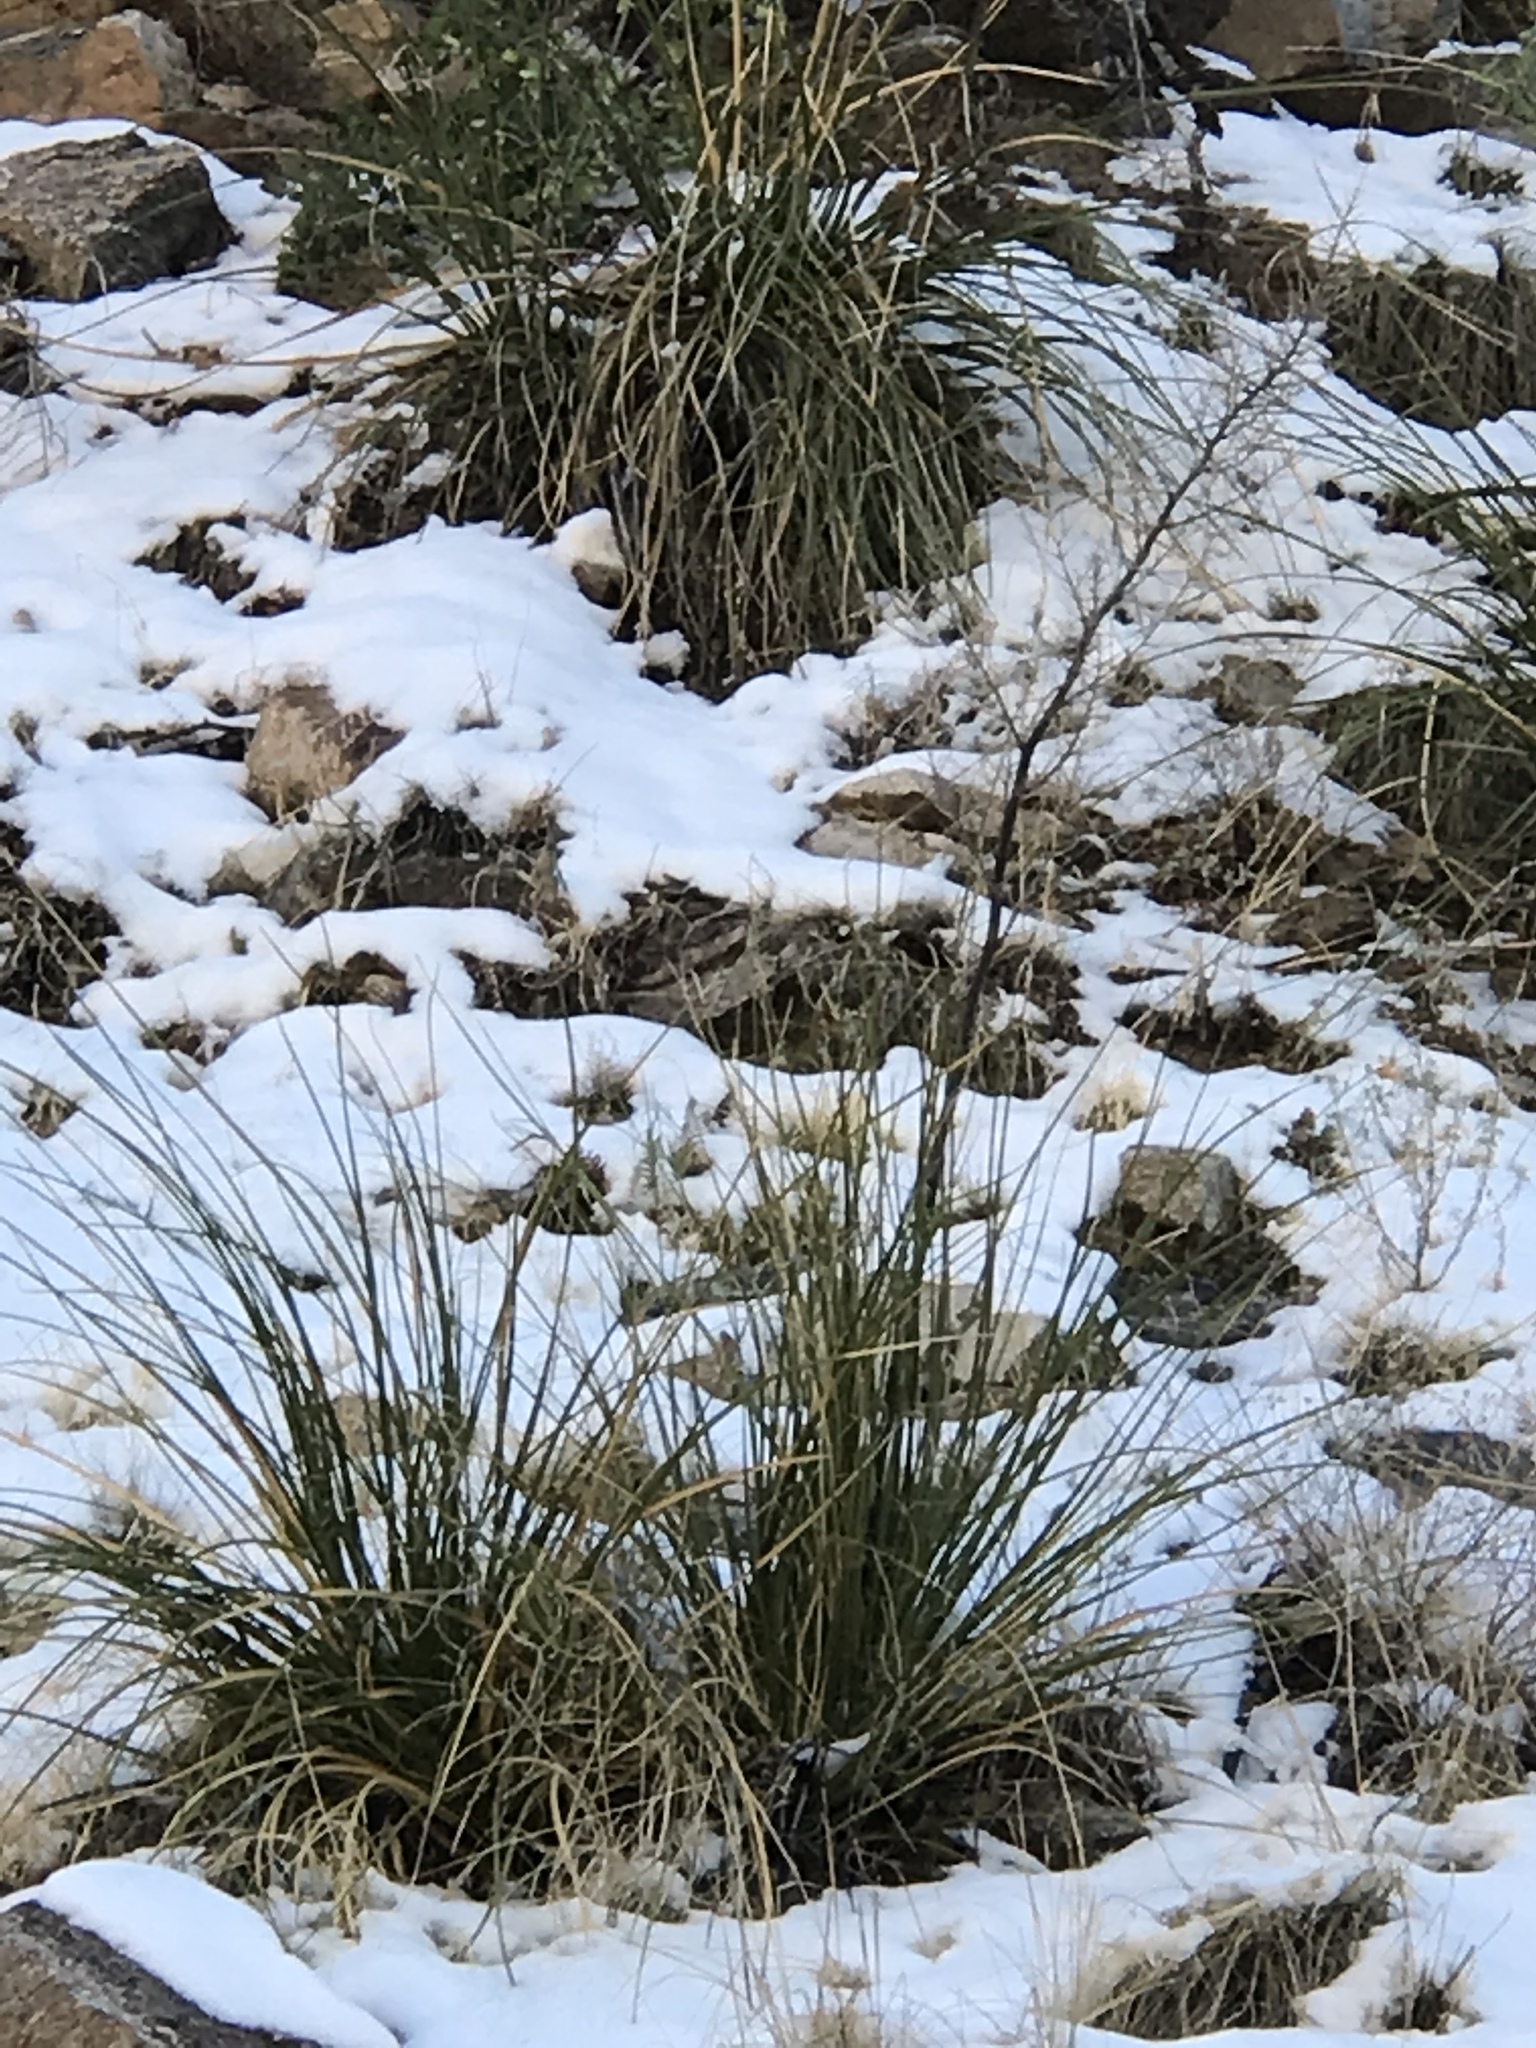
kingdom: Plantae
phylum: Tracheophyta
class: Liliopsida
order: Asparagales
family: Asparagaceae
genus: Nolina
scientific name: Nolina microcarpa
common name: Bear-grass
